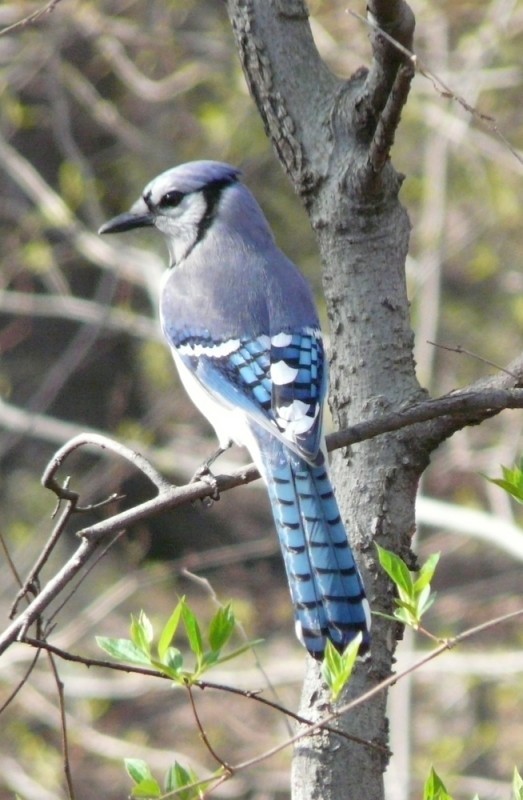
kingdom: Animalia
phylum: Chordata
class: Aves
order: Passeriformes
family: Corvidae
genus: Cyanocitta
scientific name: Cyanocitta cristata
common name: Blue jay
